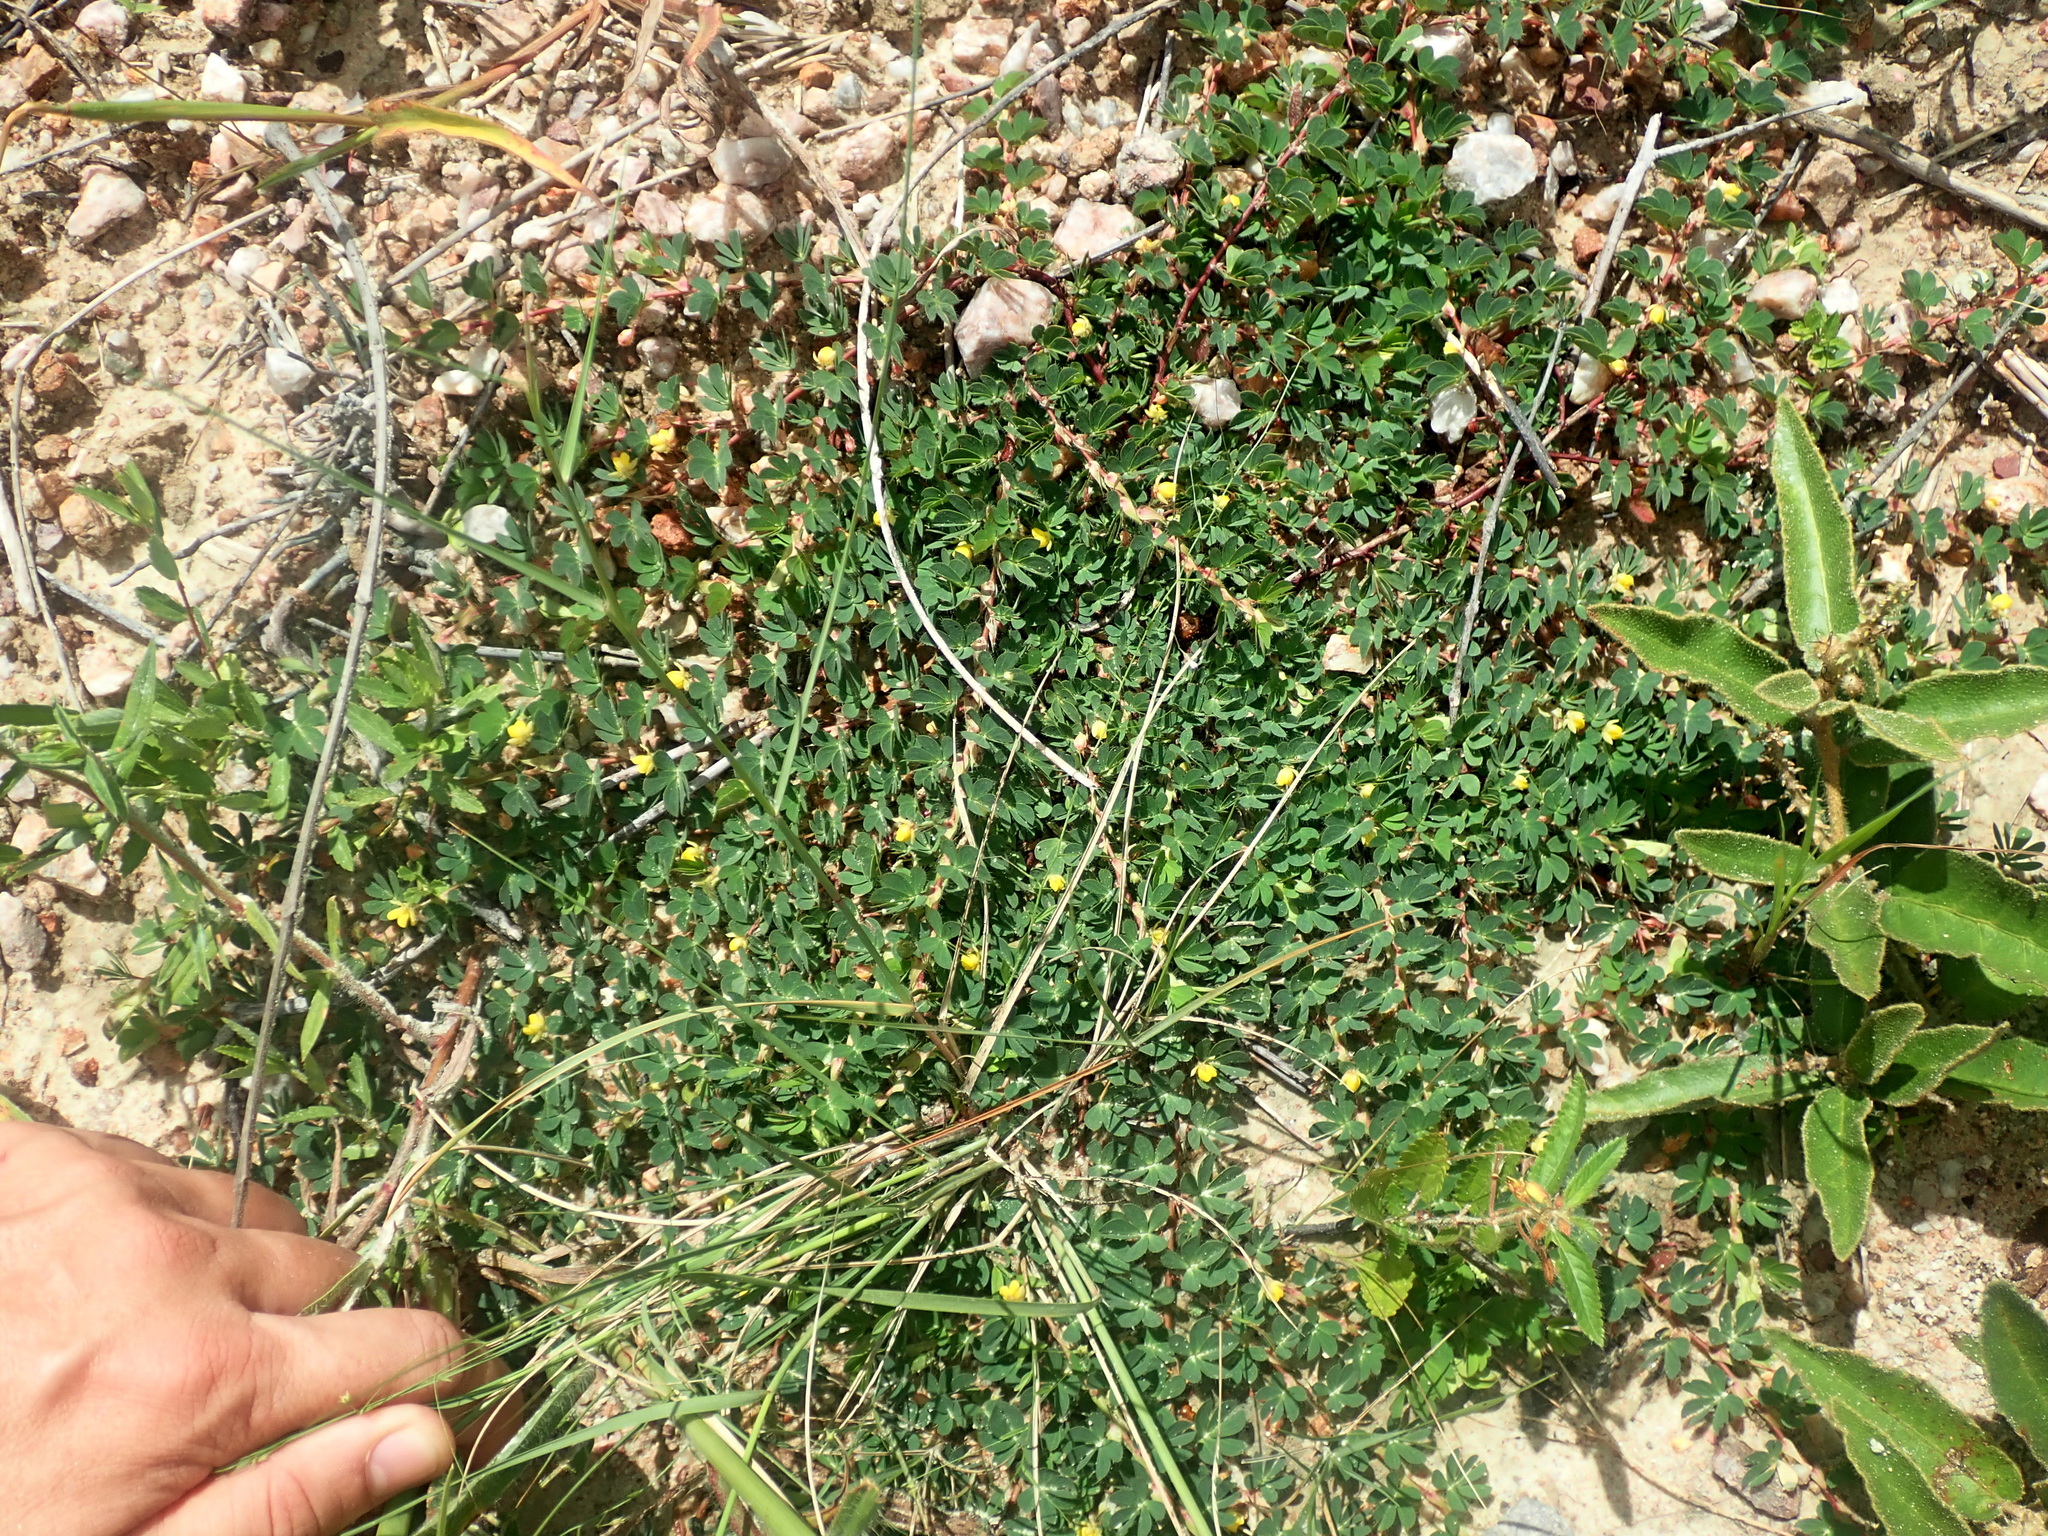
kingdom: Plantae
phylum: Tracheophyta
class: Magnoliopsida
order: Fabales
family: Fabaceae
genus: Chamaecrista
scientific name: Chamaecrista kunthiana
